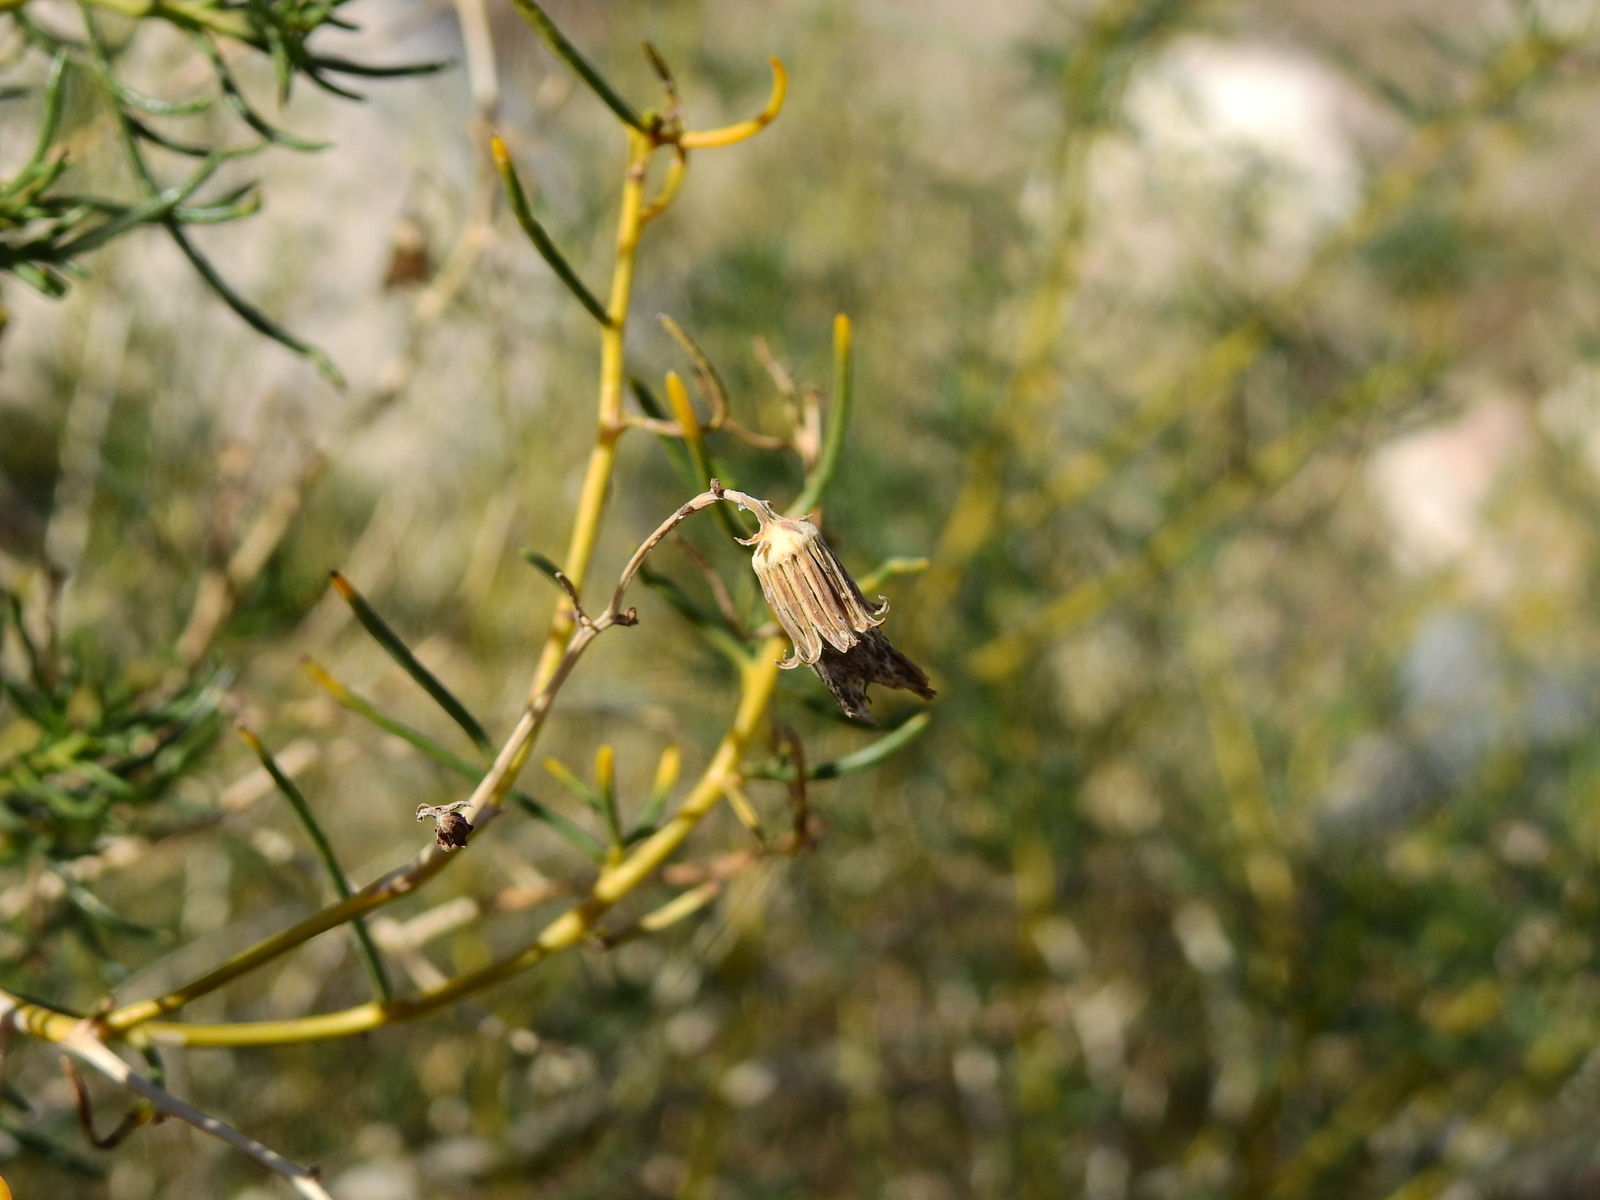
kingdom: Plantae
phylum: Tracheophyta
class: Magnoliopsida
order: Asterales
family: Asteraceae
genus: Senecio
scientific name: Senecio subulatus
